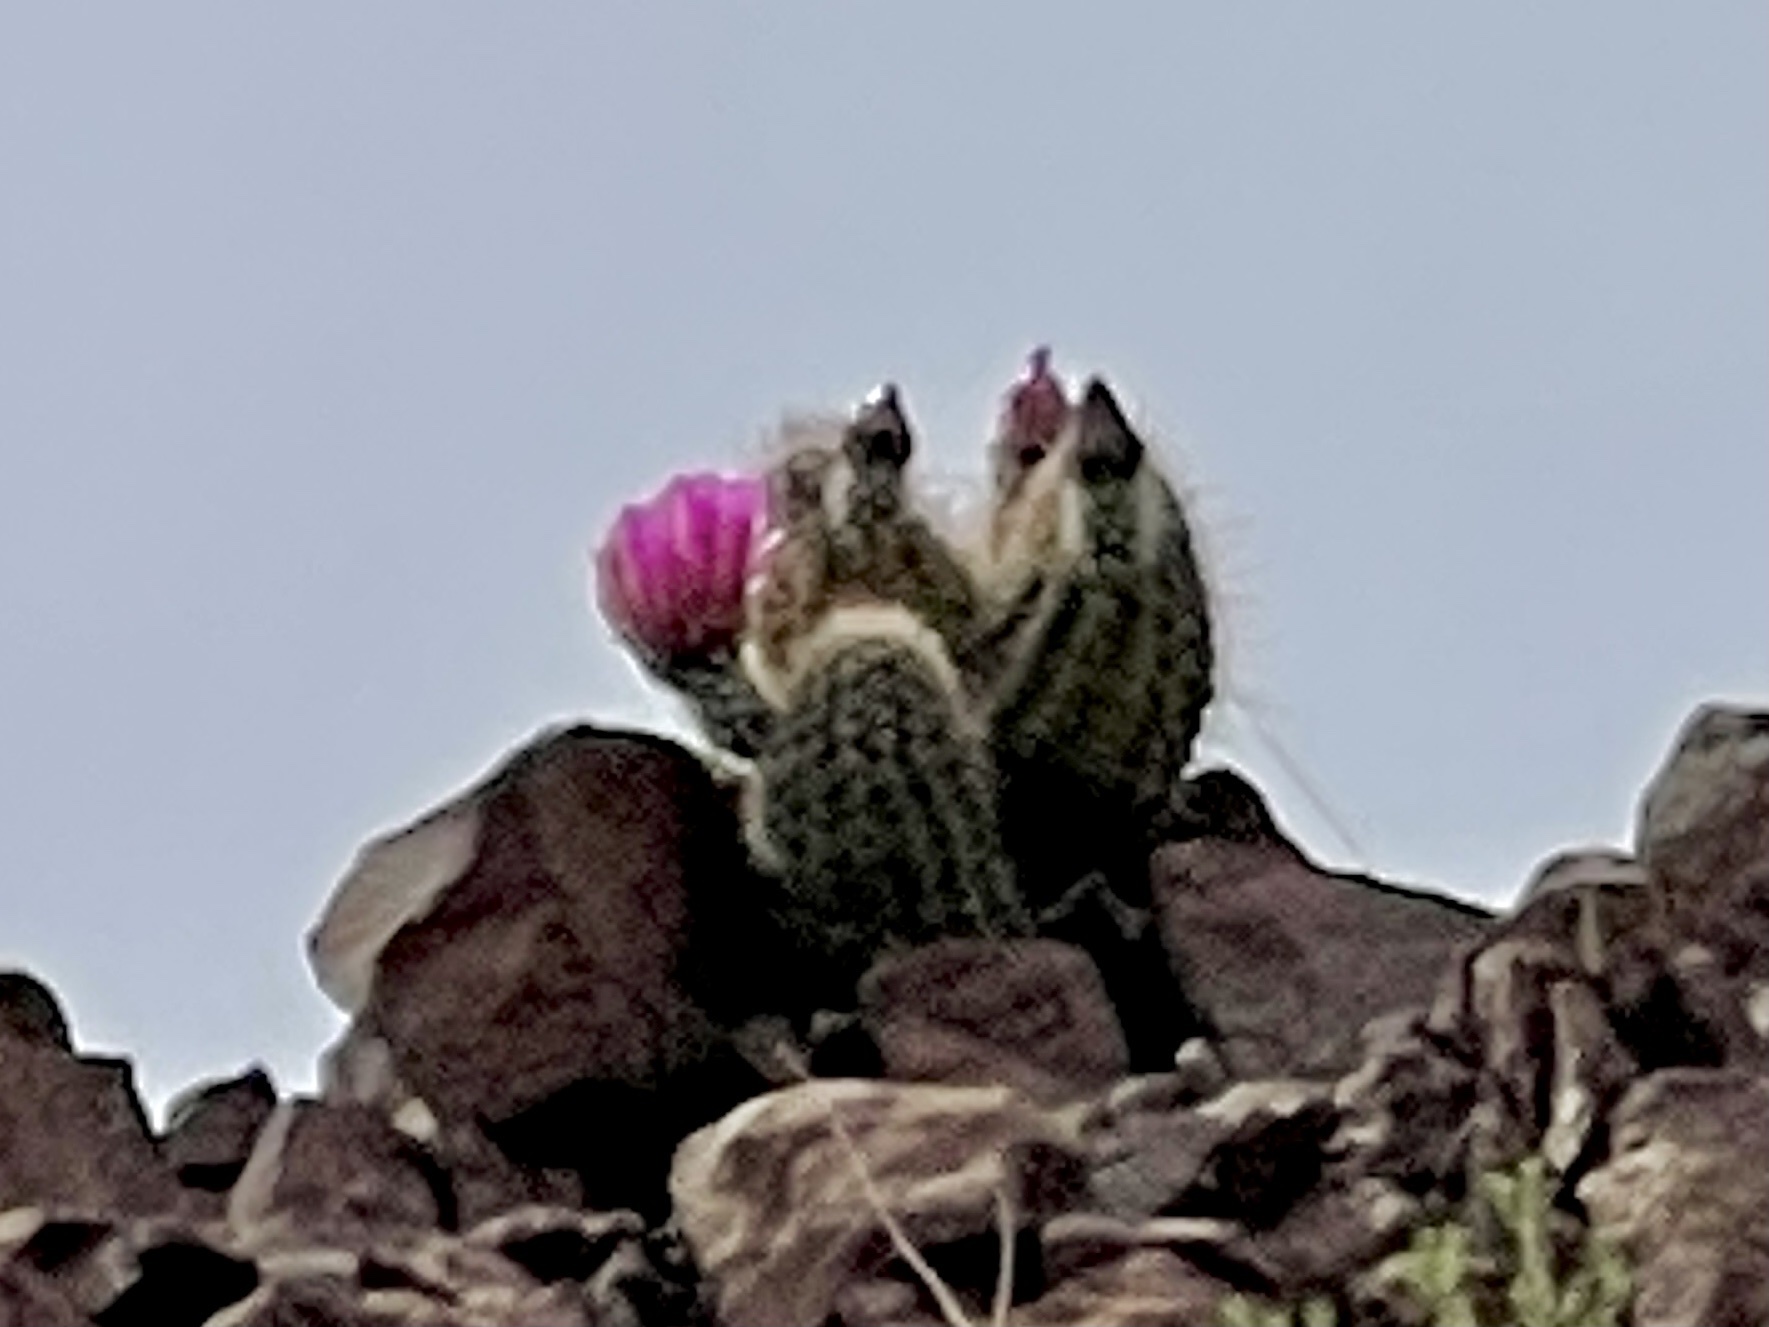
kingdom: Plantae
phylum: Tracheophyta
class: Magnoliopsida
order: Caryophyllales
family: Cactaceae
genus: Echinocereus
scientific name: Echinocereus fasciculatus
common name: Bundle hedgehog
